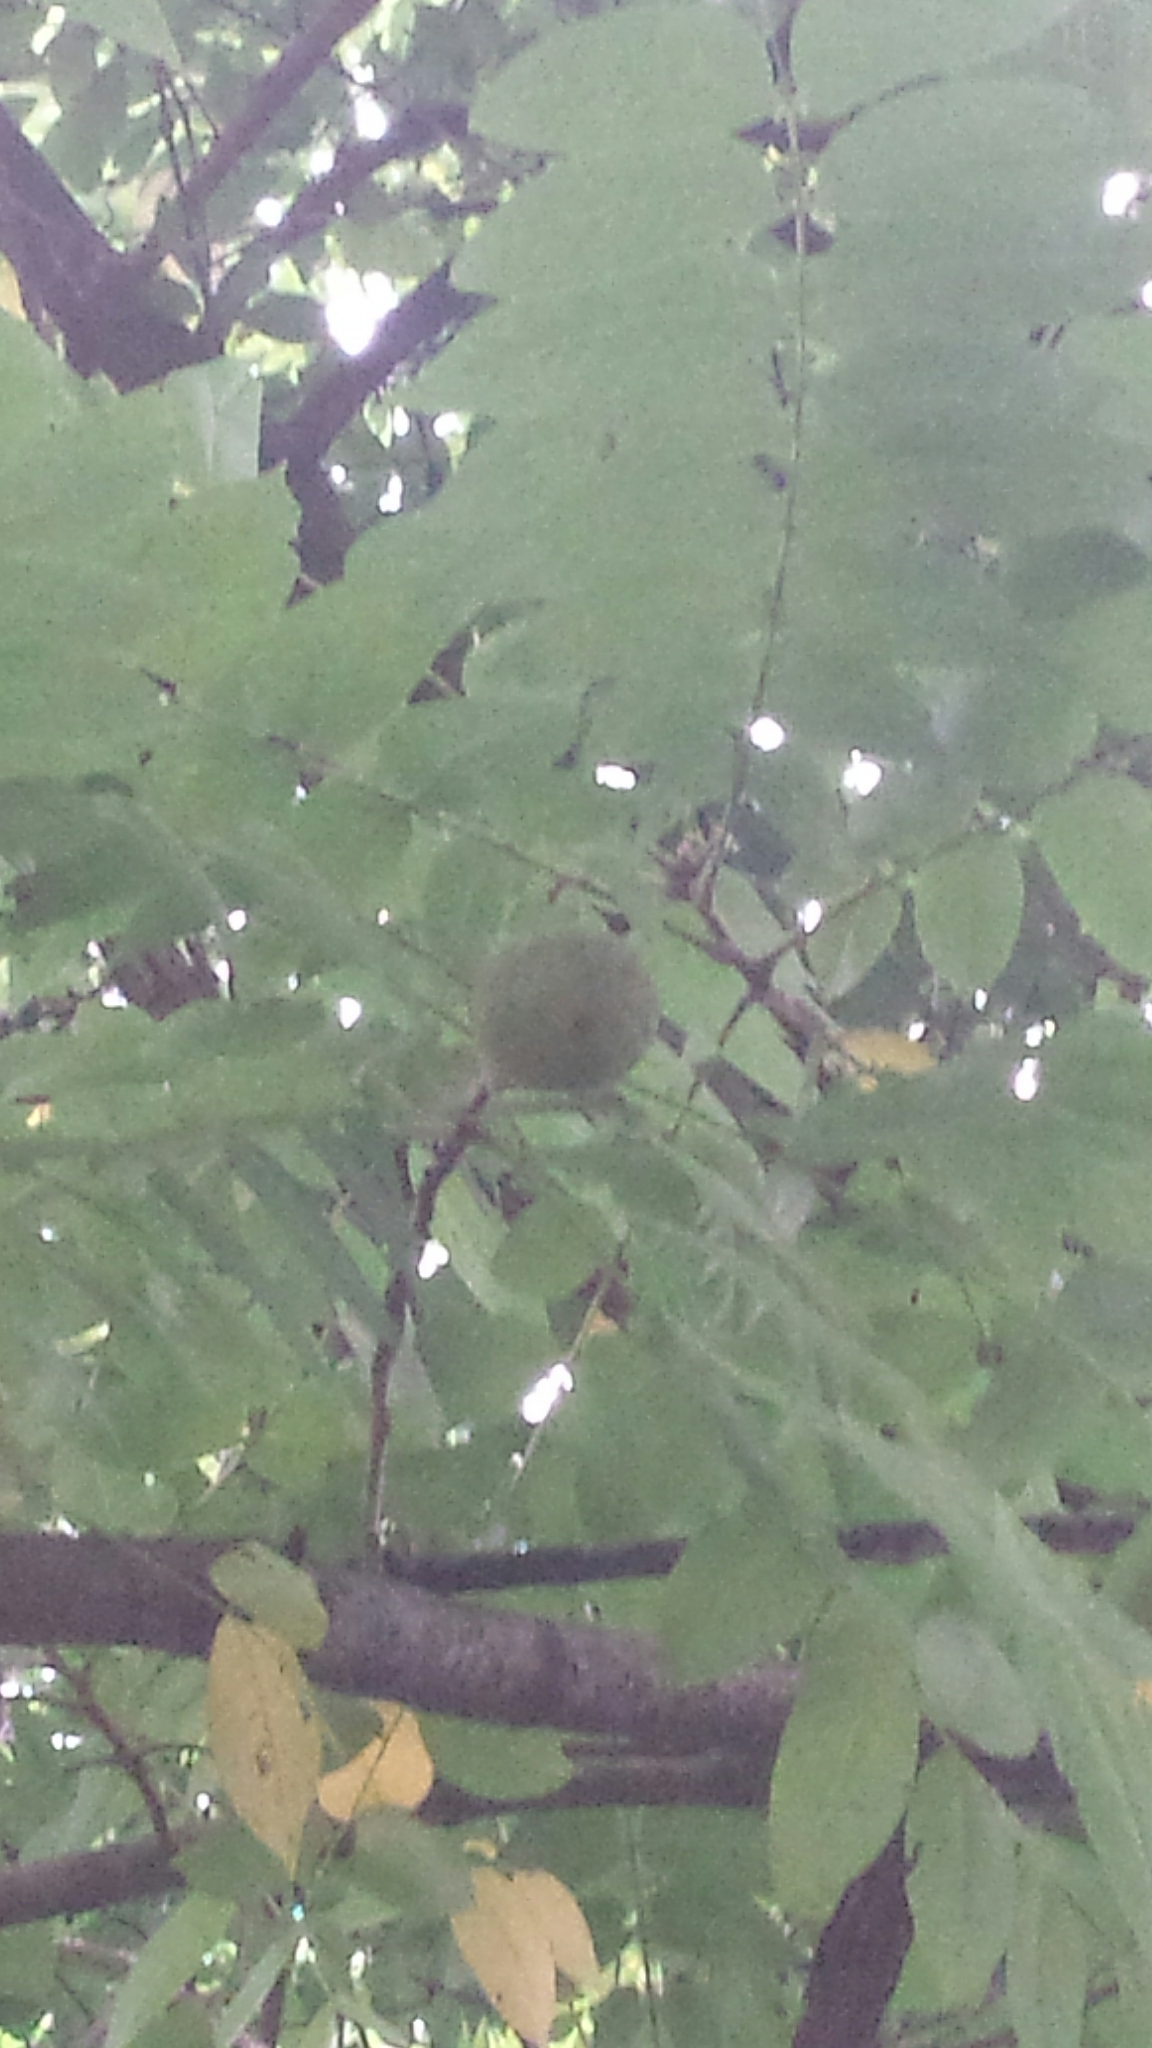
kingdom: Plantae
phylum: Tracheophyta
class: Magnoliopsida
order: Fagales
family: Juglandaceae
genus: Juglans
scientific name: Juglans nigra
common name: Black walnut
